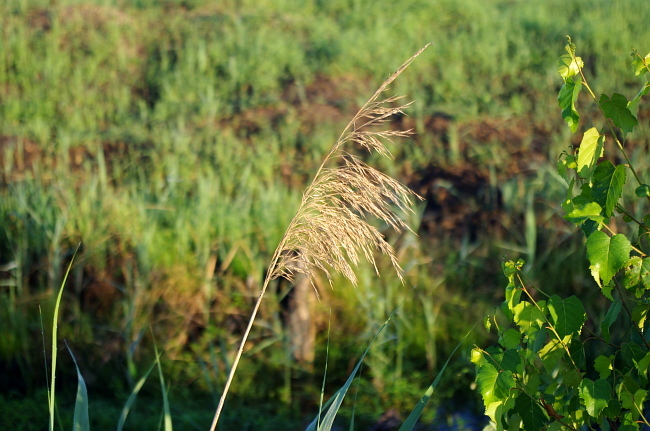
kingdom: Plantae
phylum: Tracheophyta
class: Liliopsida
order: Poales
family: Poaceae
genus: Phragmites
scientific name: Phragmites australis
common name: Common reed
